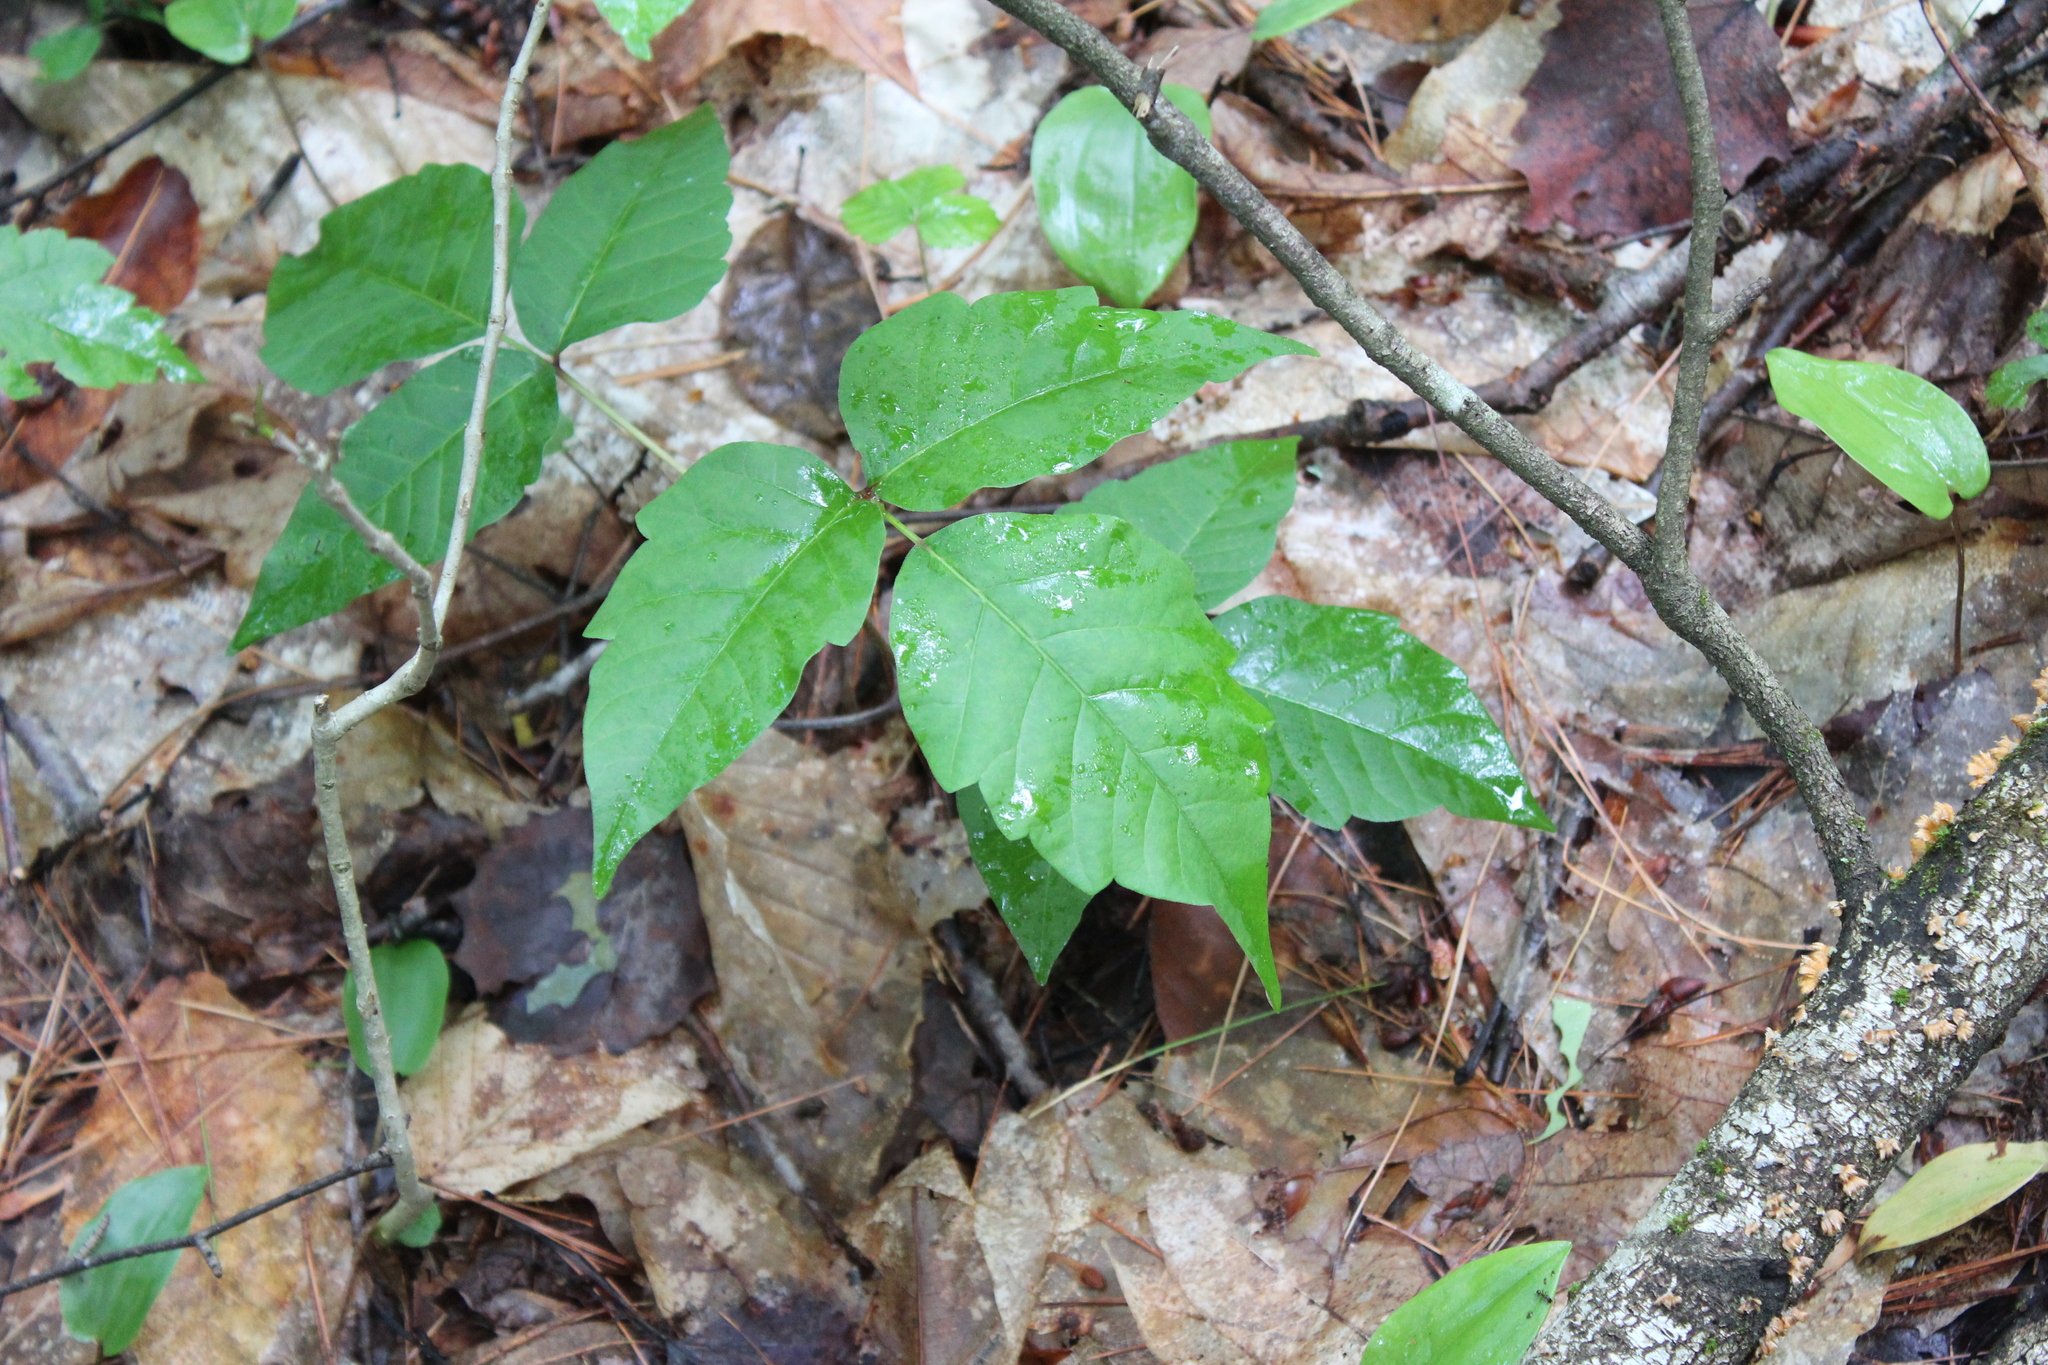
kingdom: Plantae
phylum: Tracheophyta
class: Magnoliopsida
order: Sapindales
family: Anacardiaceae
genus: Toxicodendron
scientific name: Toxicodendron radicans
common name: Poison ivy
